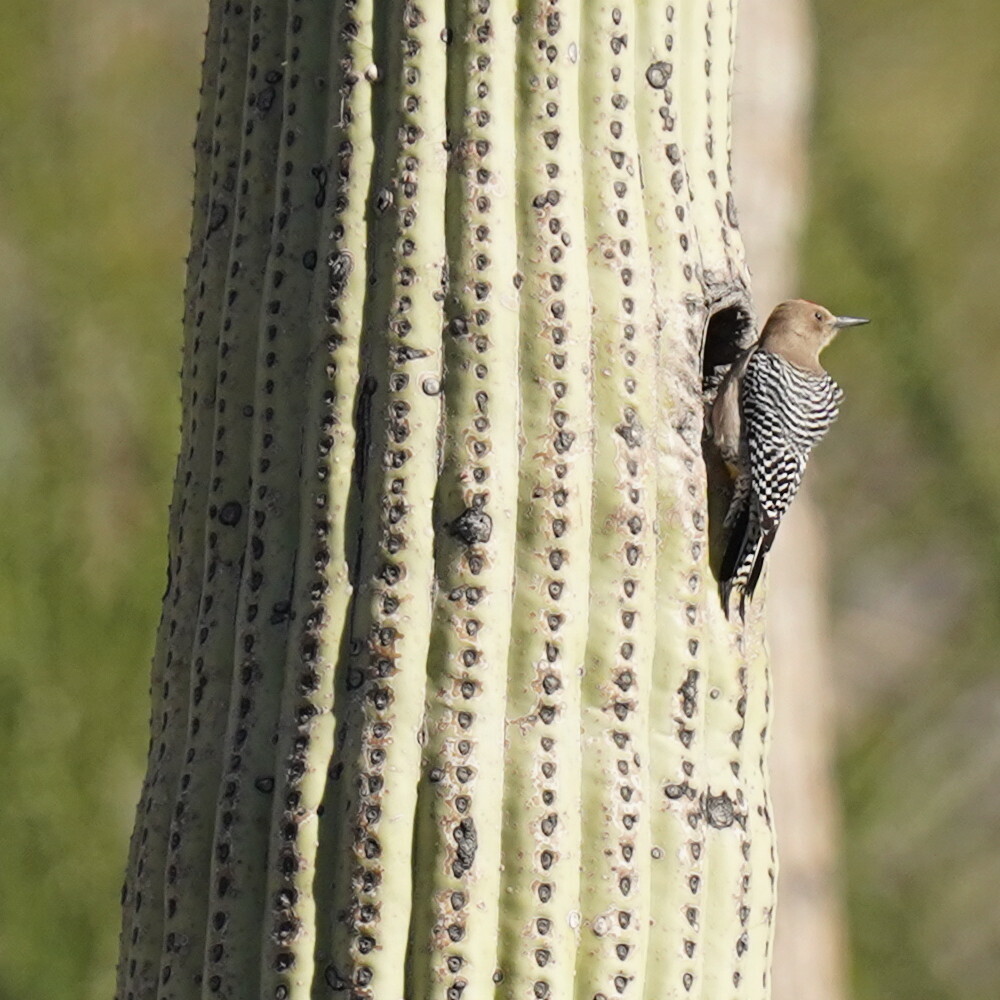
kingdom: Animalia
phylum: Chordata
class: Aves
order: Piciformes
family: Picidae
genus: Melanerpes
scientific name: Melanerpes uropygialis
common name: Gila woodpecker
